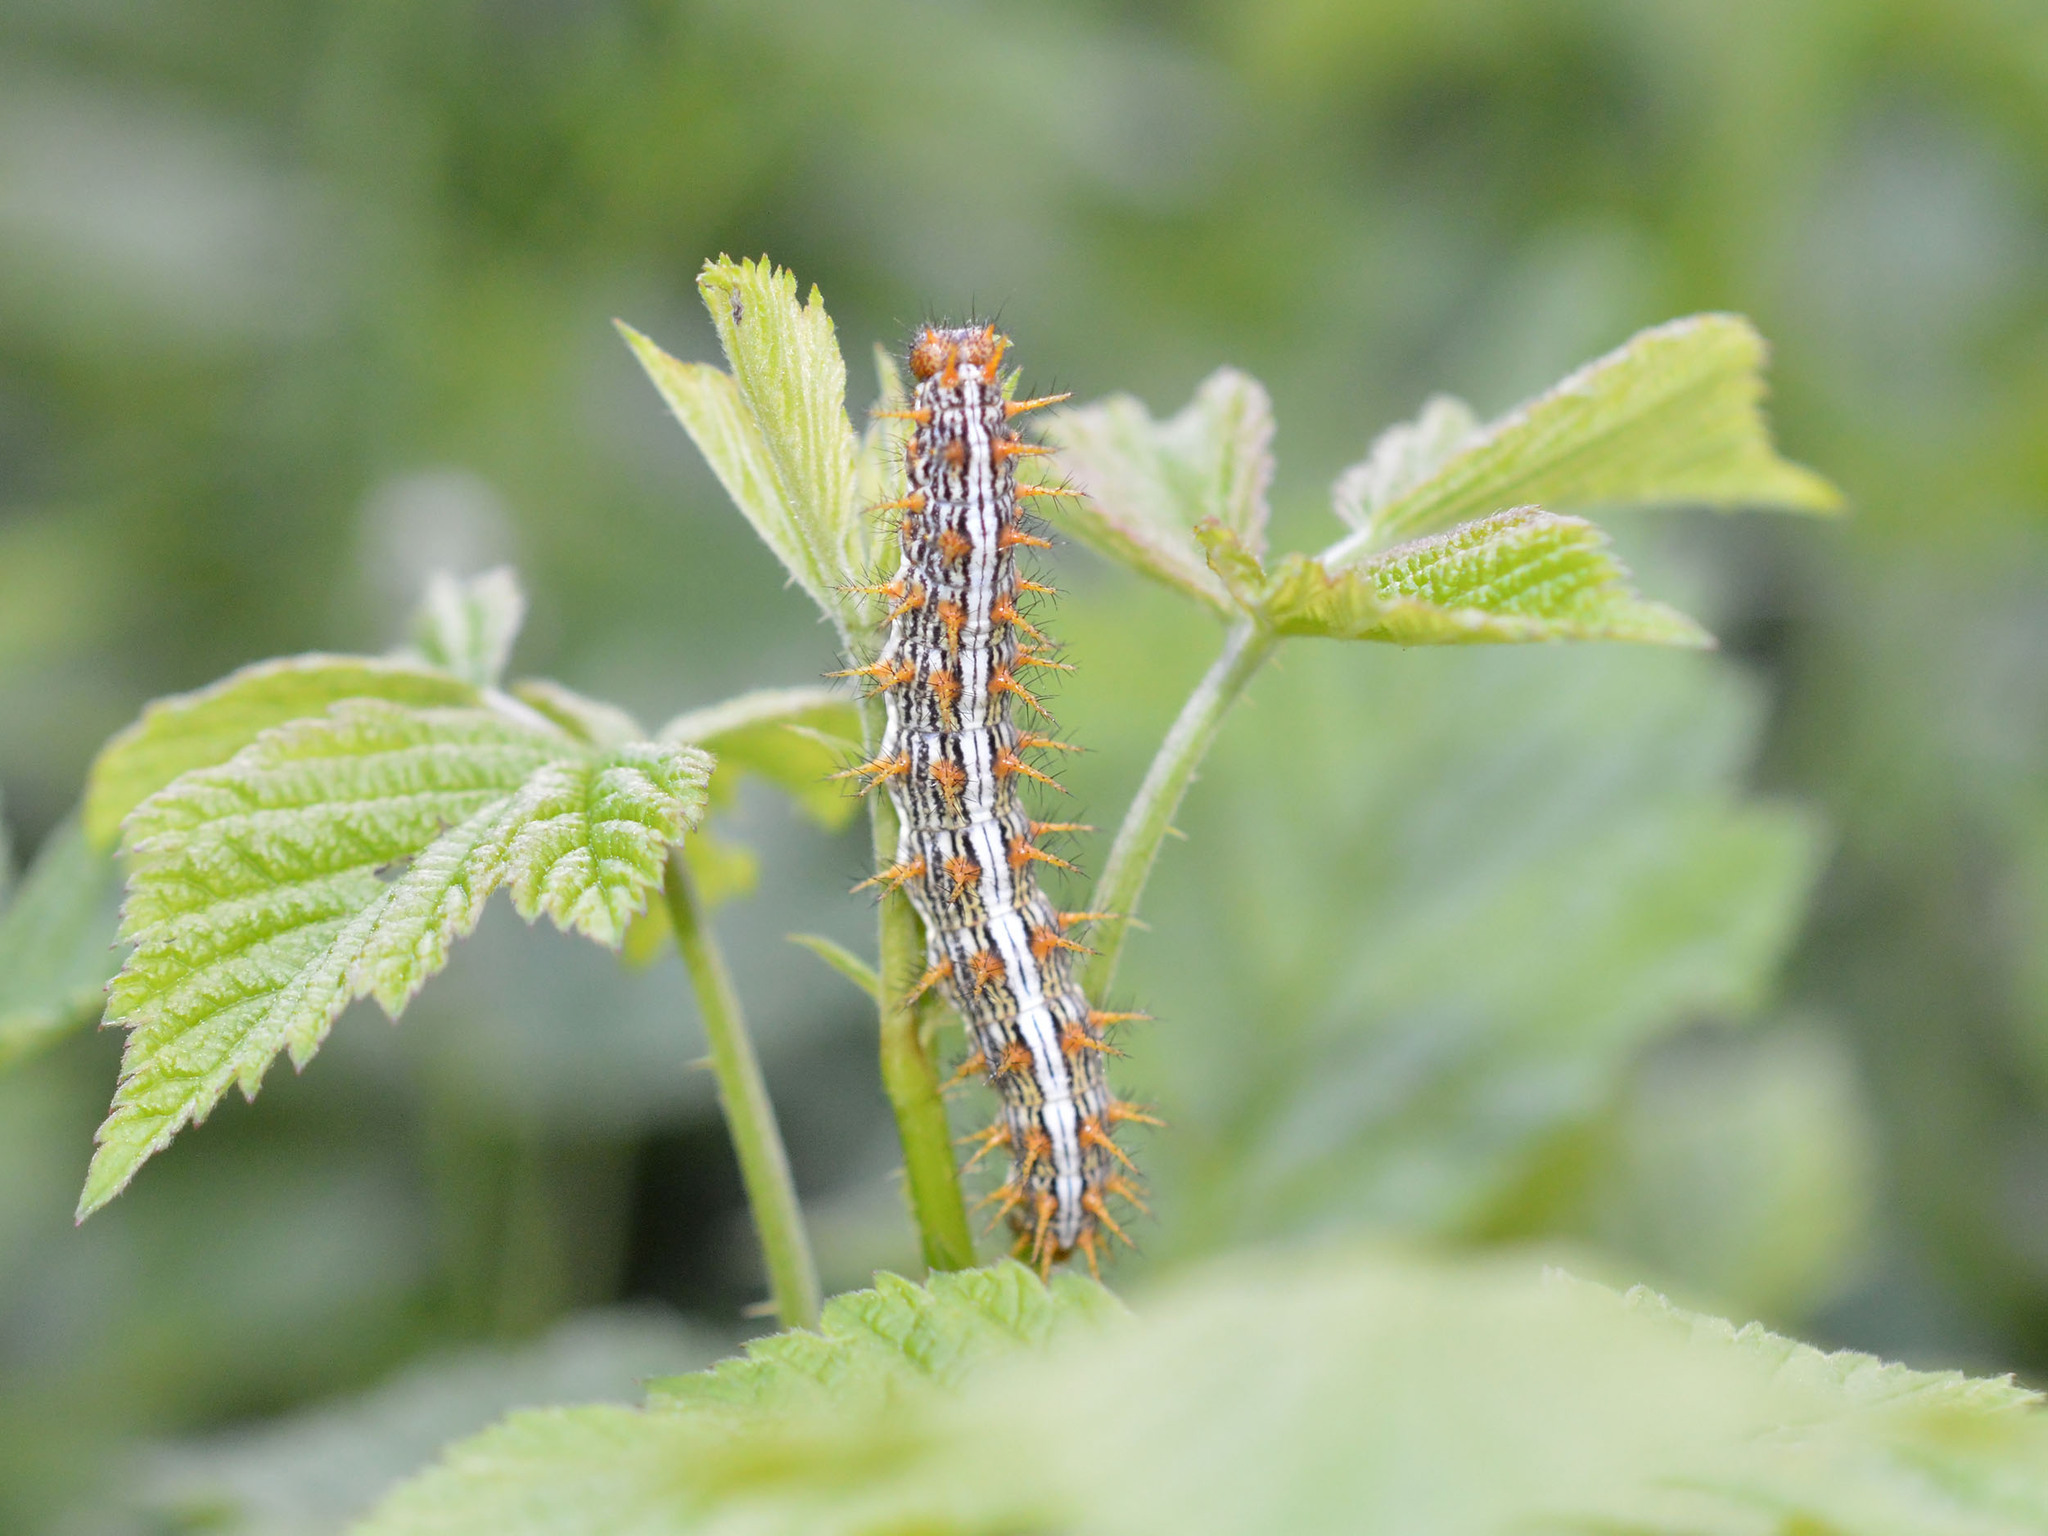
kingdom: Animalia
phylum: Arthropoda
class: Insecta
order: Lepidoptera
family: Nymphalidae
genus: Brenthis
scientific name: Brenthis daphne
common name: Marbled fritillary
